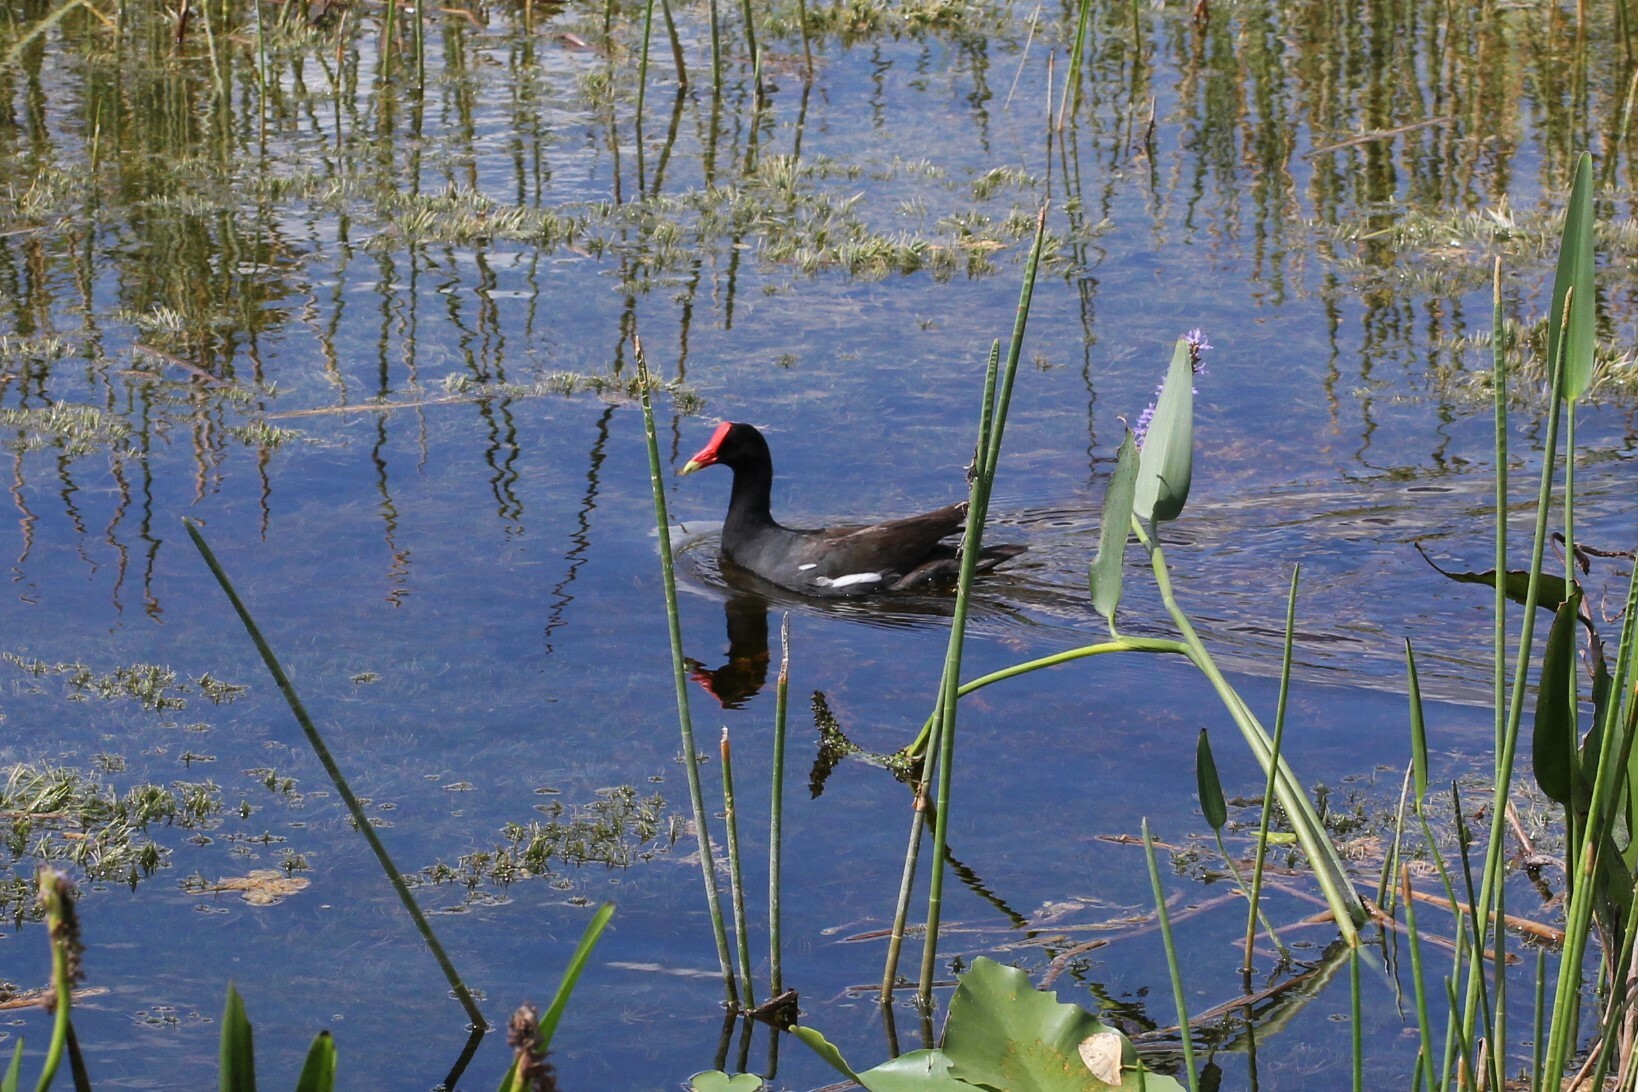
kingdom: Animalia
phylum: Chordata
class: Aves
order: Gruiformes
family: Rallidae
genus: Gallinula
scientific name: Gallinula chloropus
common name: Common moorhen
